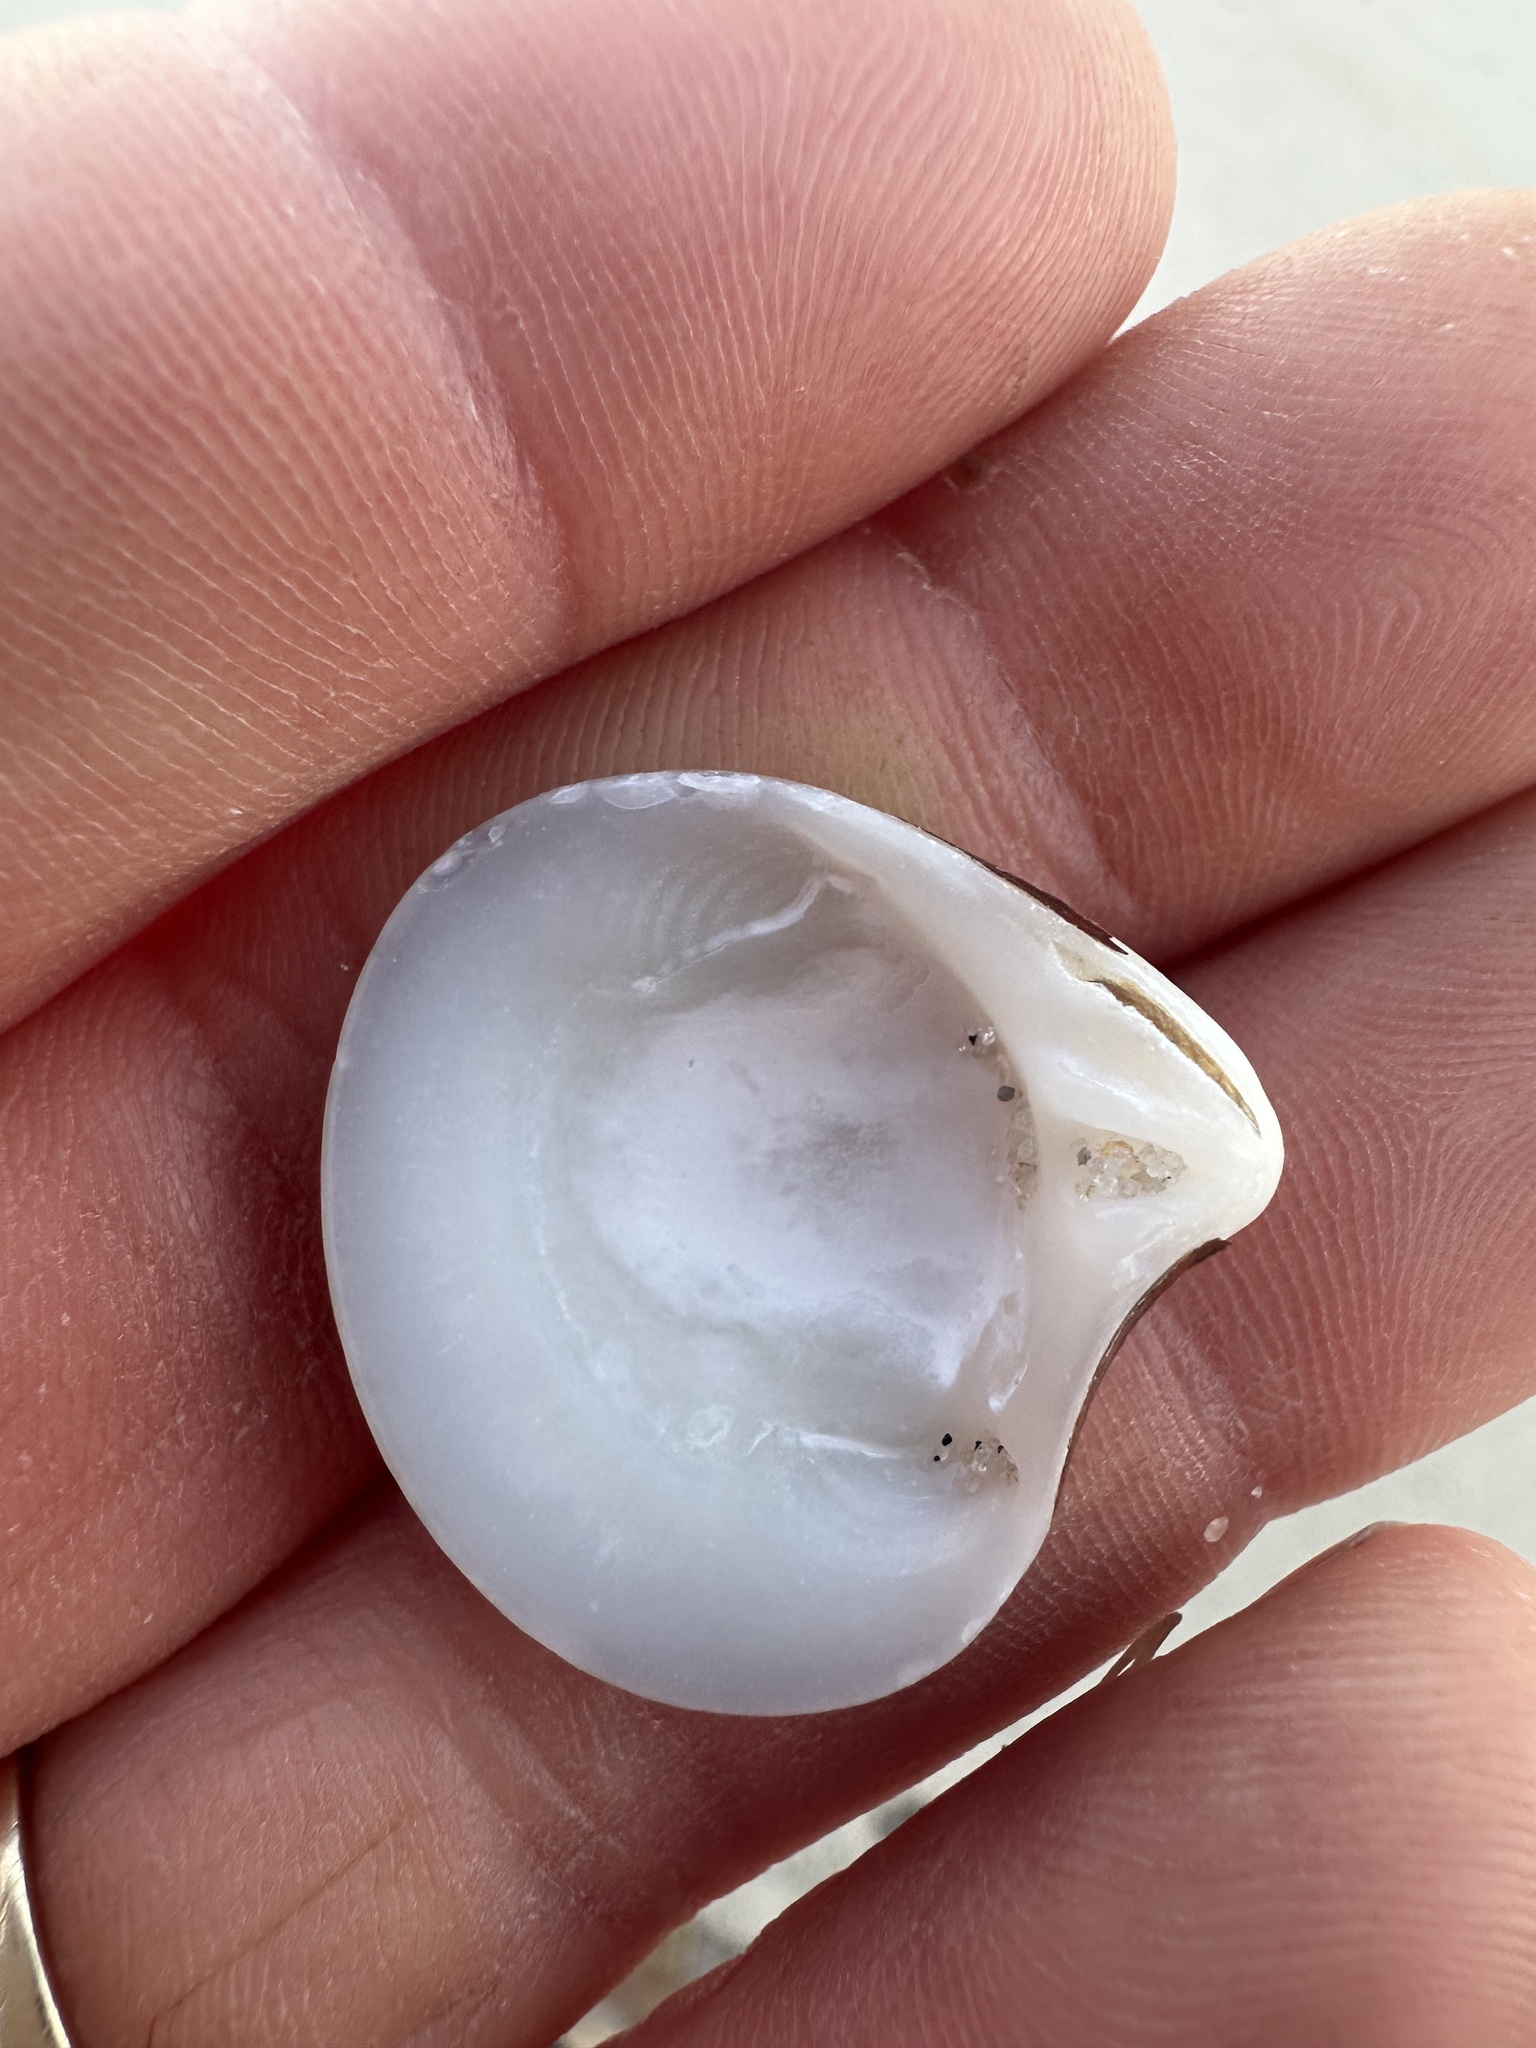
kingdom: Animalia
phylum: Mollusca
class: Bivalvia
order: Cardiida
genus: Isocrassina
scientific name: Isocrassina
